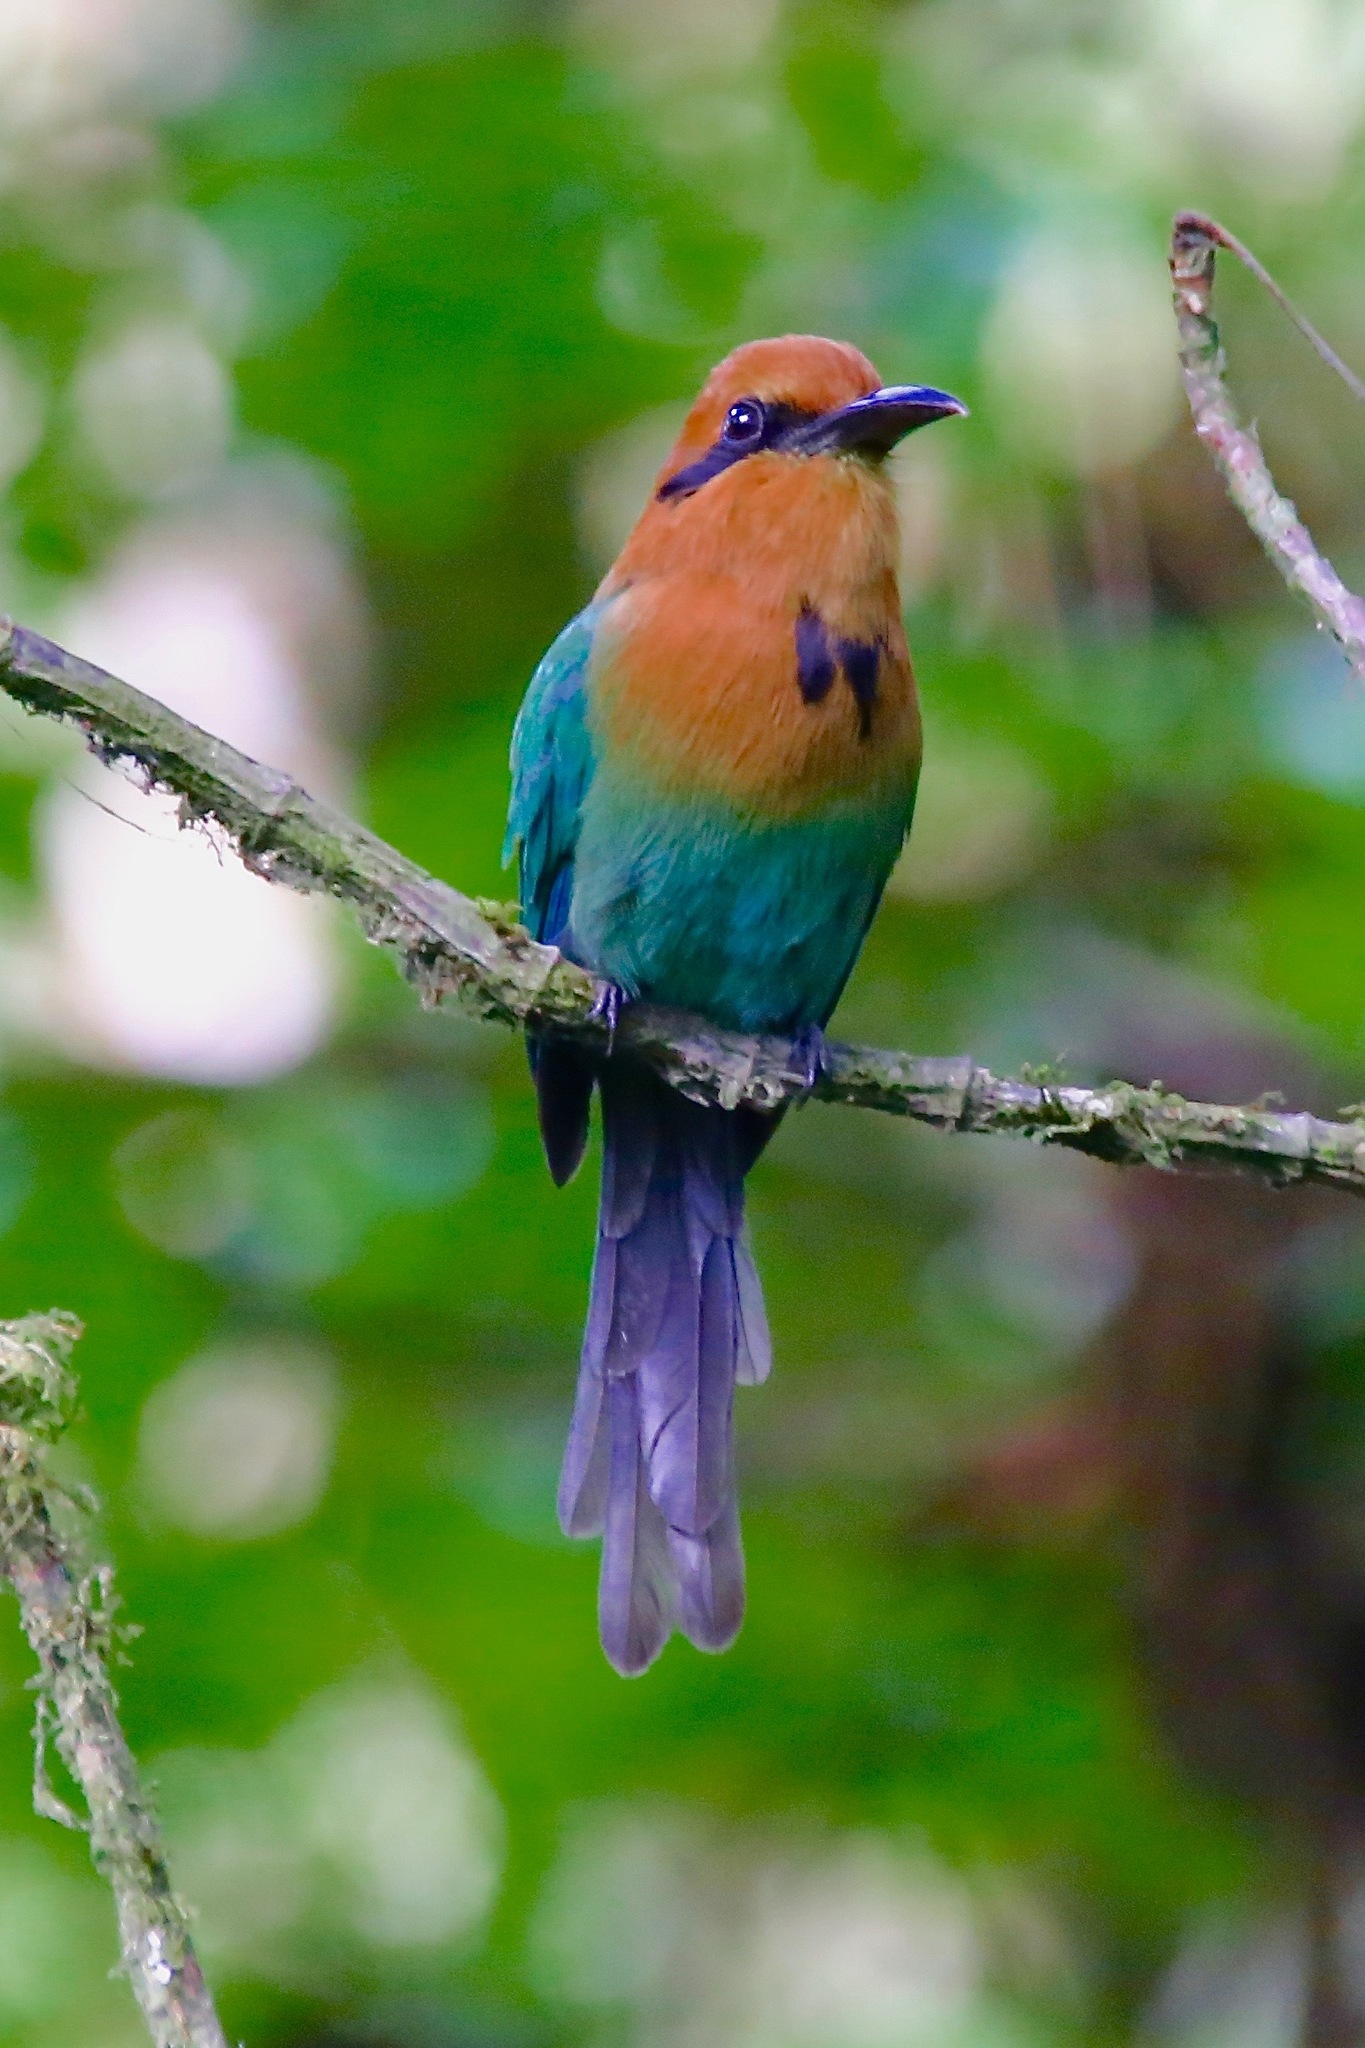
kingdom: Animalia
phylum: Chordata
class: Aves
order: Coraciiformes
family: Momotidae
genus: Electron
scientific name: Electron platyrhynchum
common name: Broad-billed motmot
